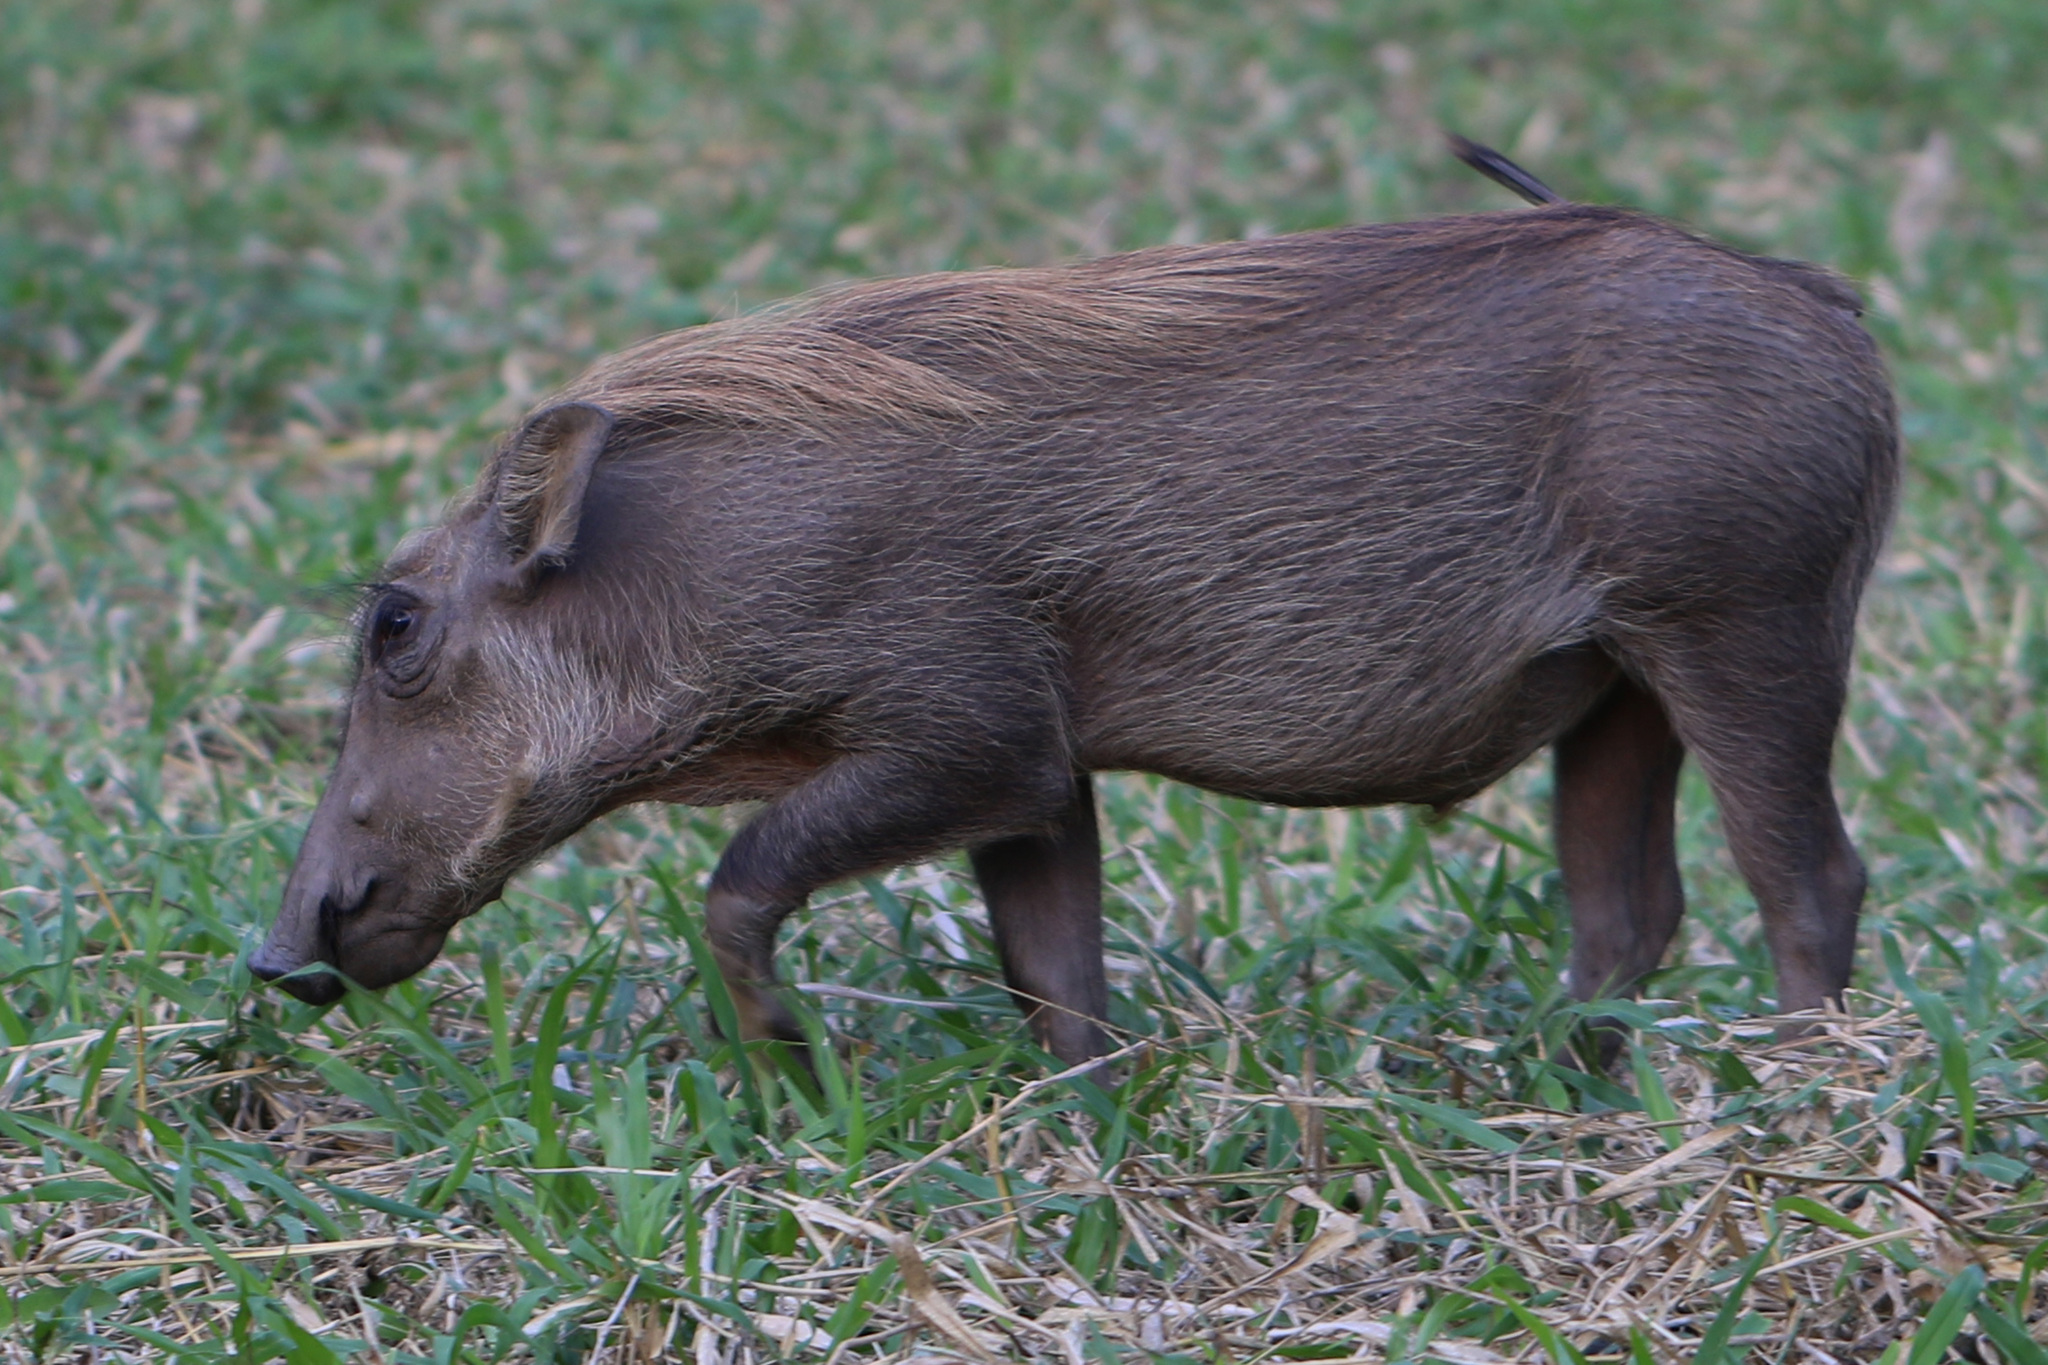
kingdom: Animalia
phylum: Chordata
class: Mammalia
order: Artiodactyla
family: Suidae
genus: Phacochoerus
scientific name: Phacochoerus africanus
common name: Common warthog
